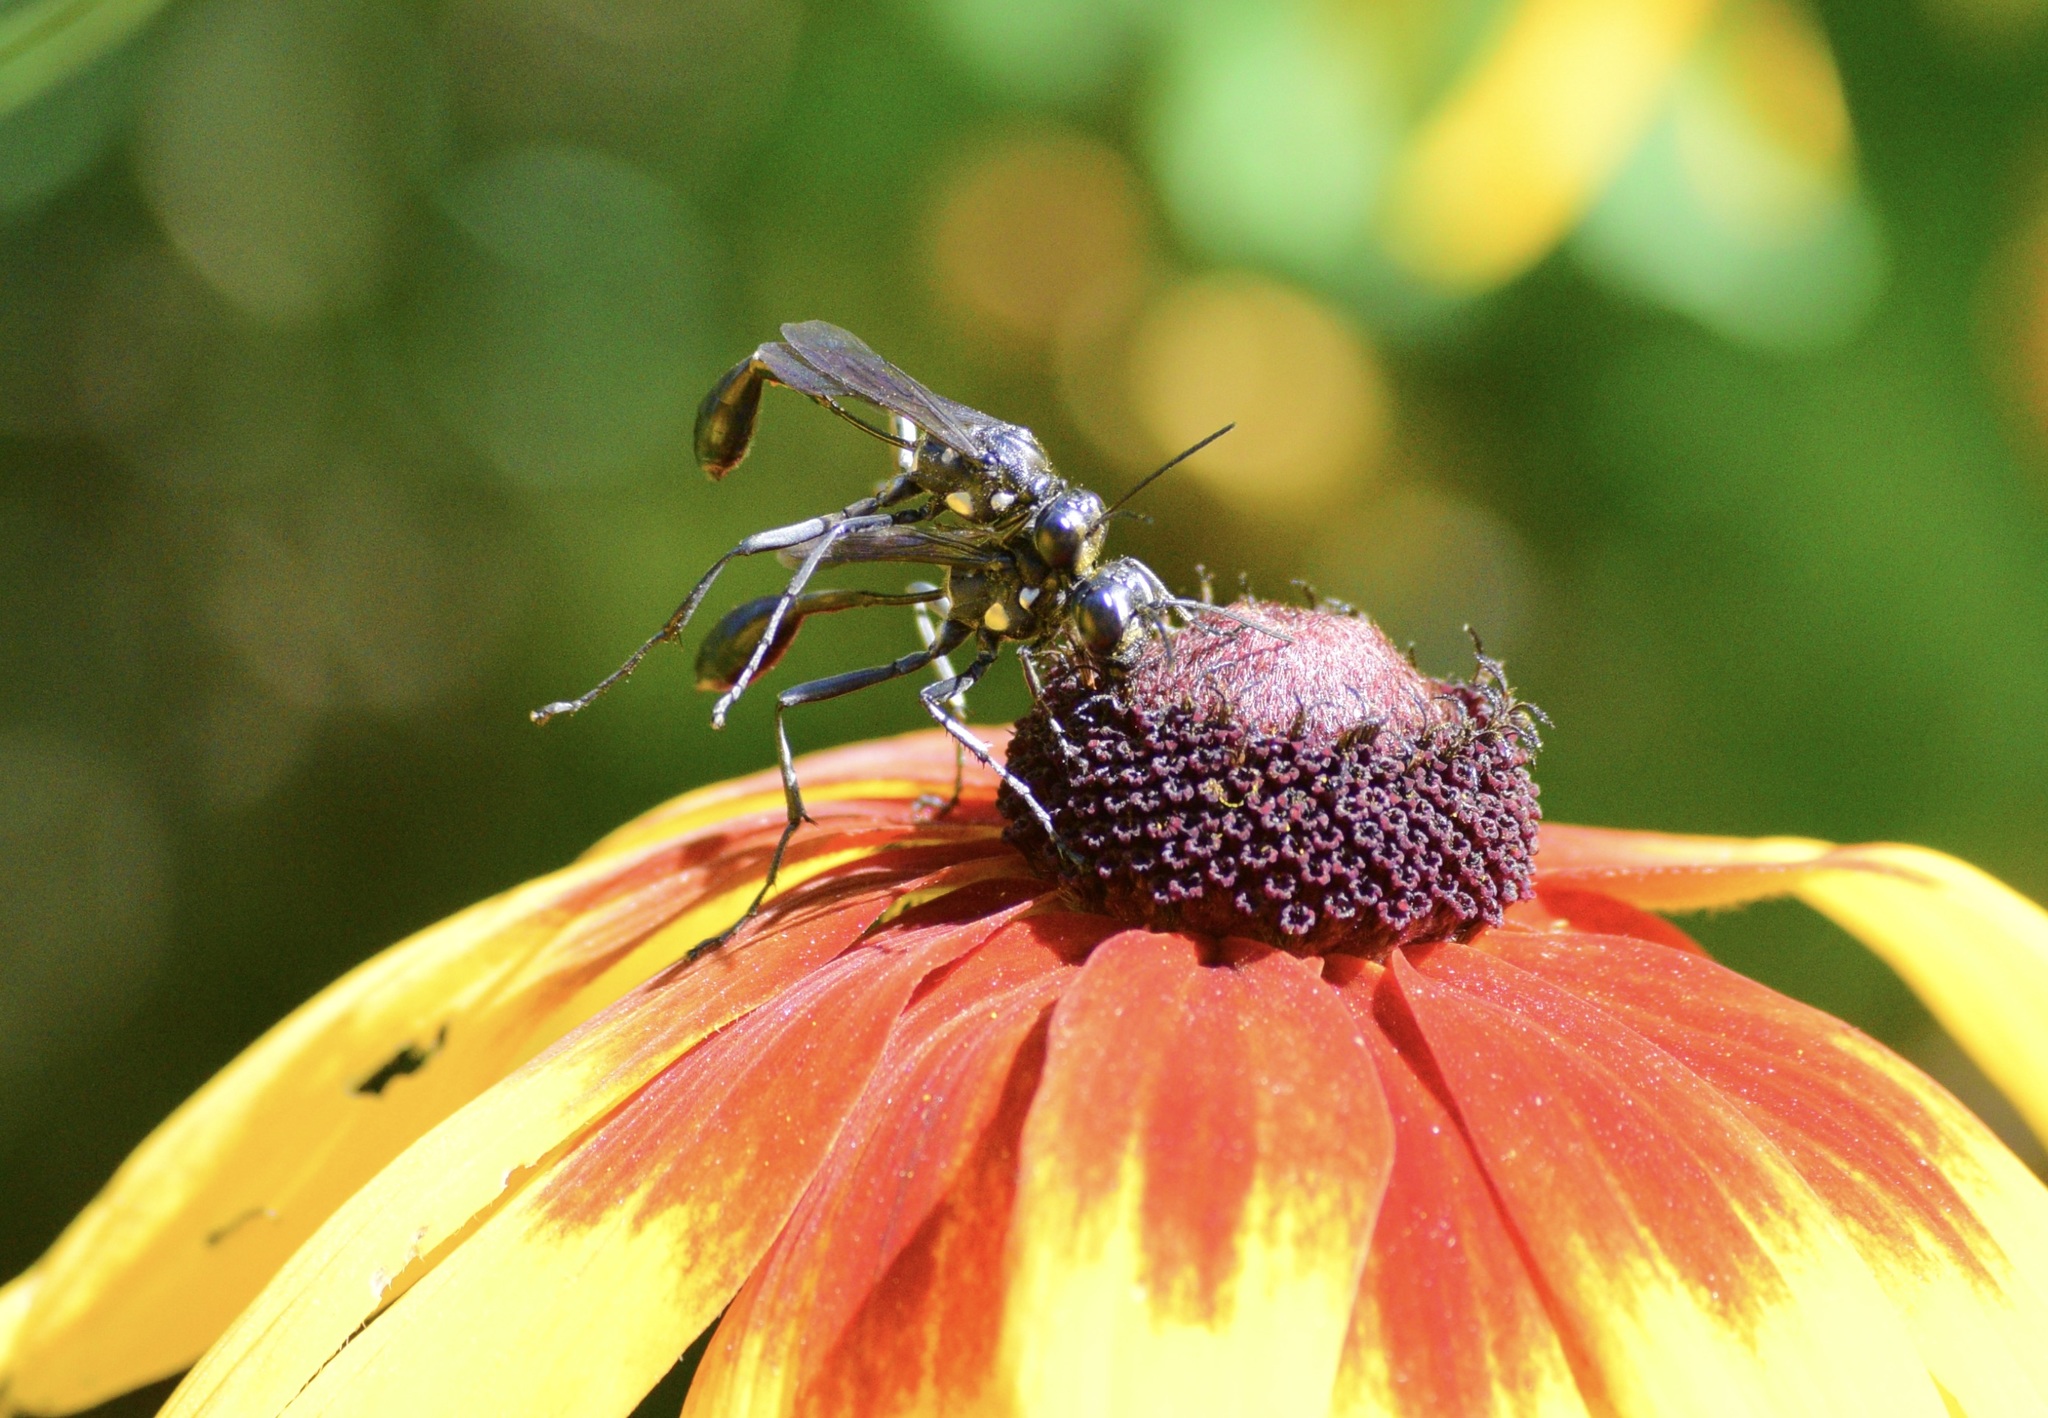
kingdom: Animalia
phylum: Arthropoda
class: Insecta
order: Hymenoptera
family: Sphecidae
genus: Eremnophila
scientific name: Eremnophila aureonotata
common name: Gold-marked thread-waisted wasp
